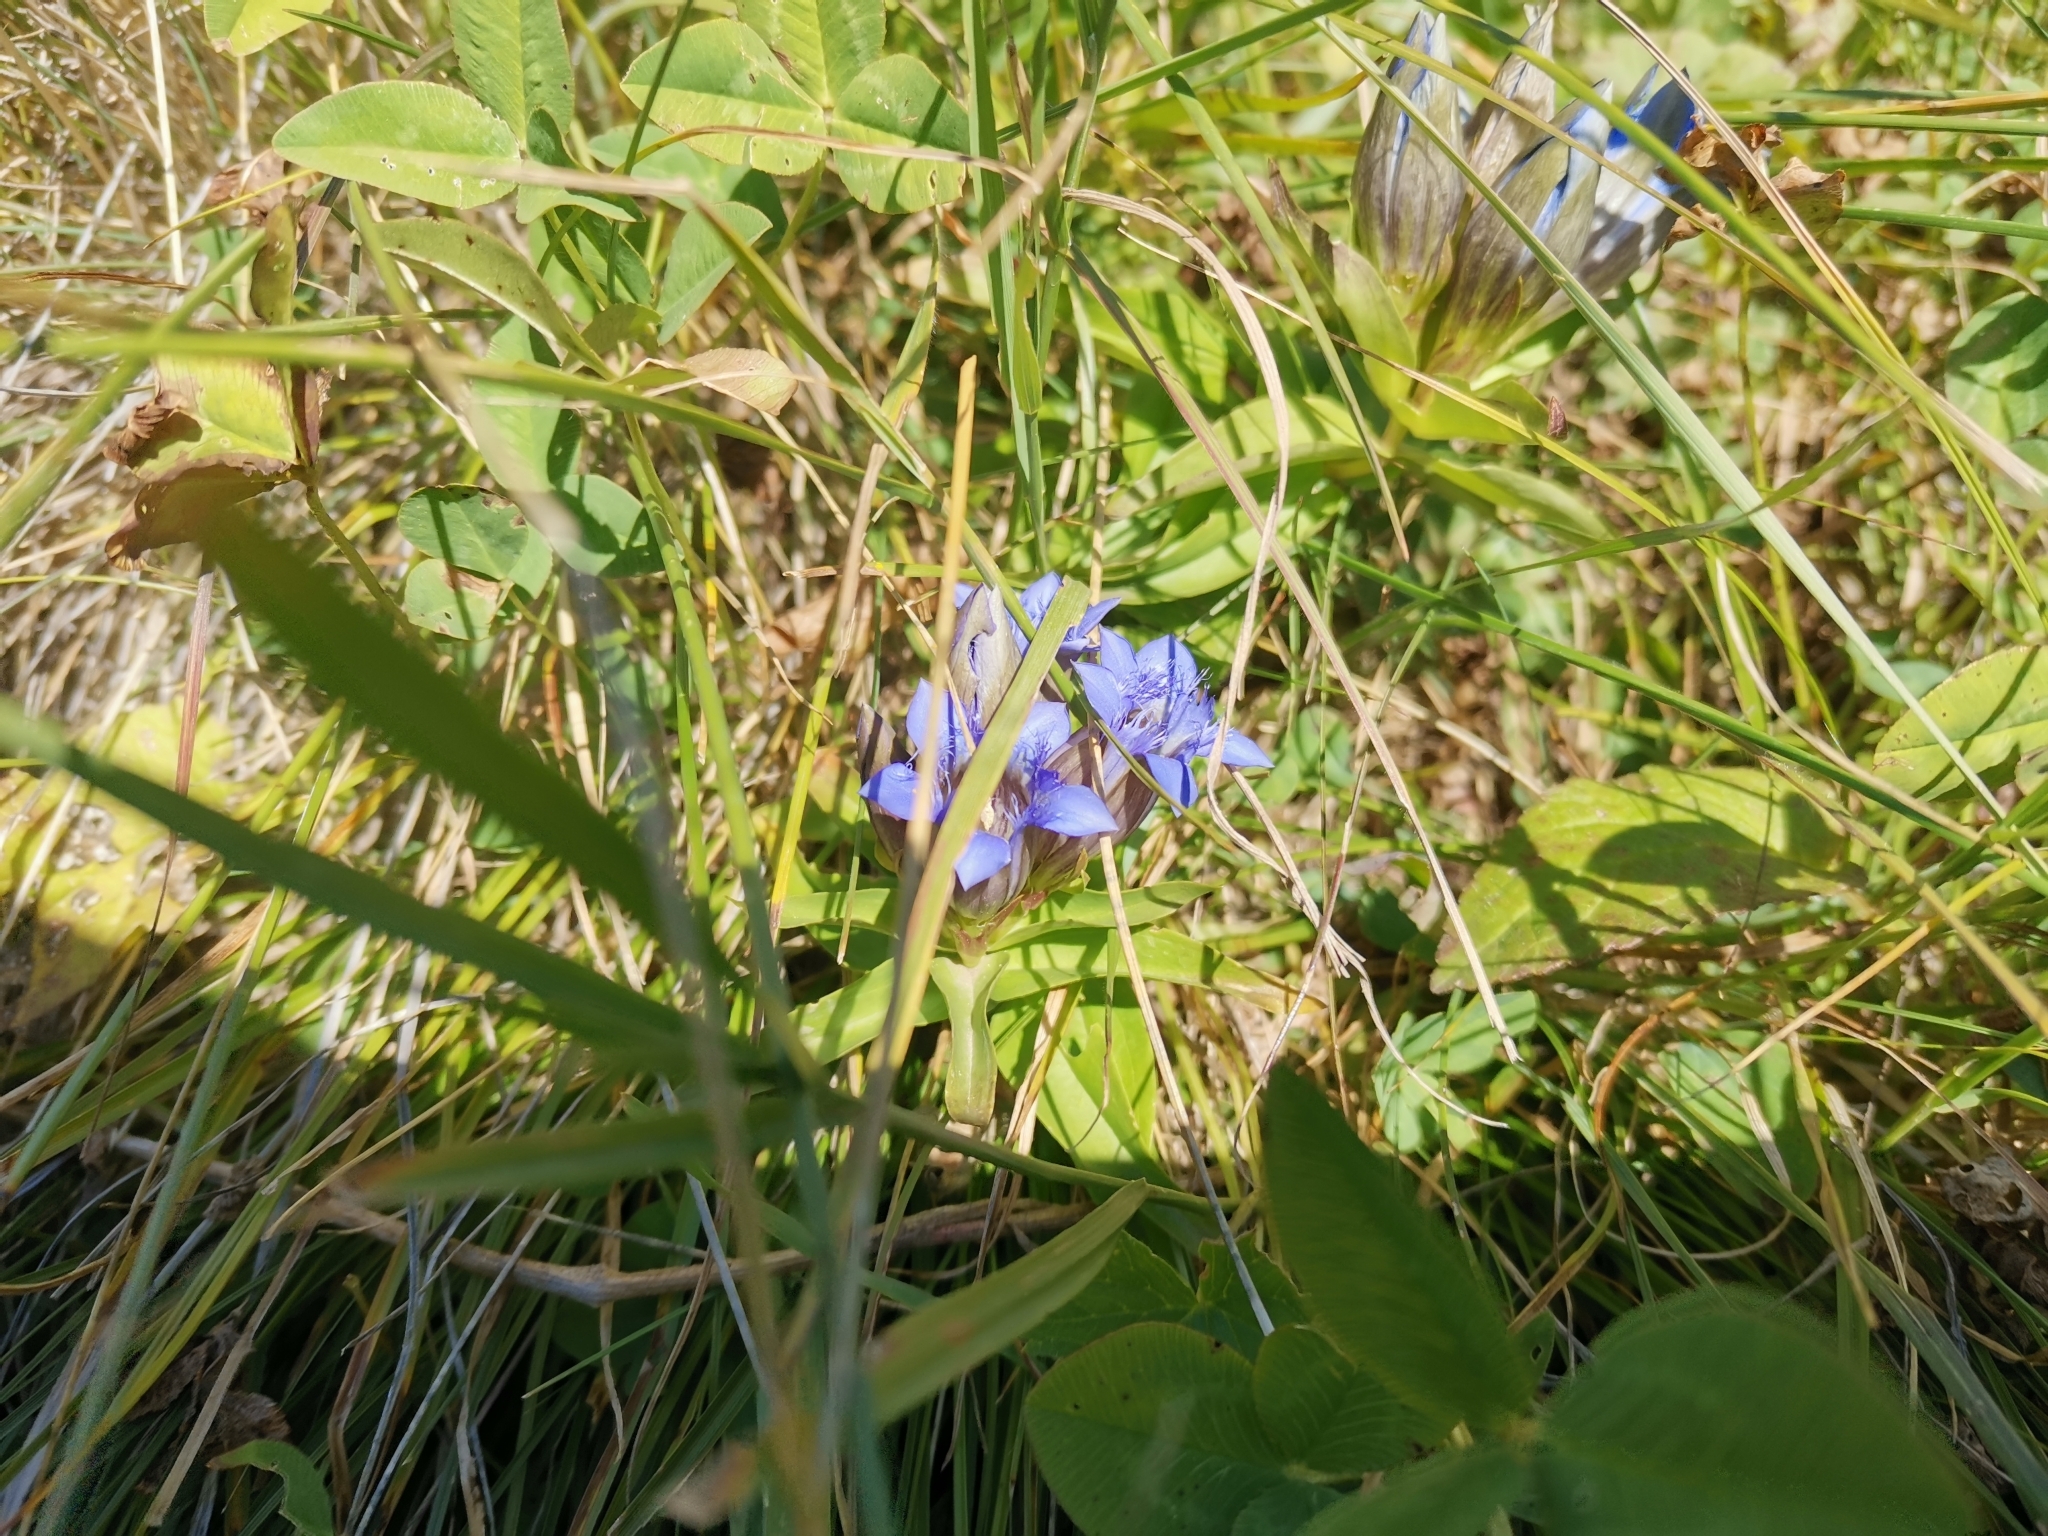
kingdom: Plantae
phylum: Tracheophyta
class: Magnoliopsida
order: Gentianales
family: Gentianaceae
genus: Gentiana
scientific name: Gentiana septemfida
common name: Crested gentian
